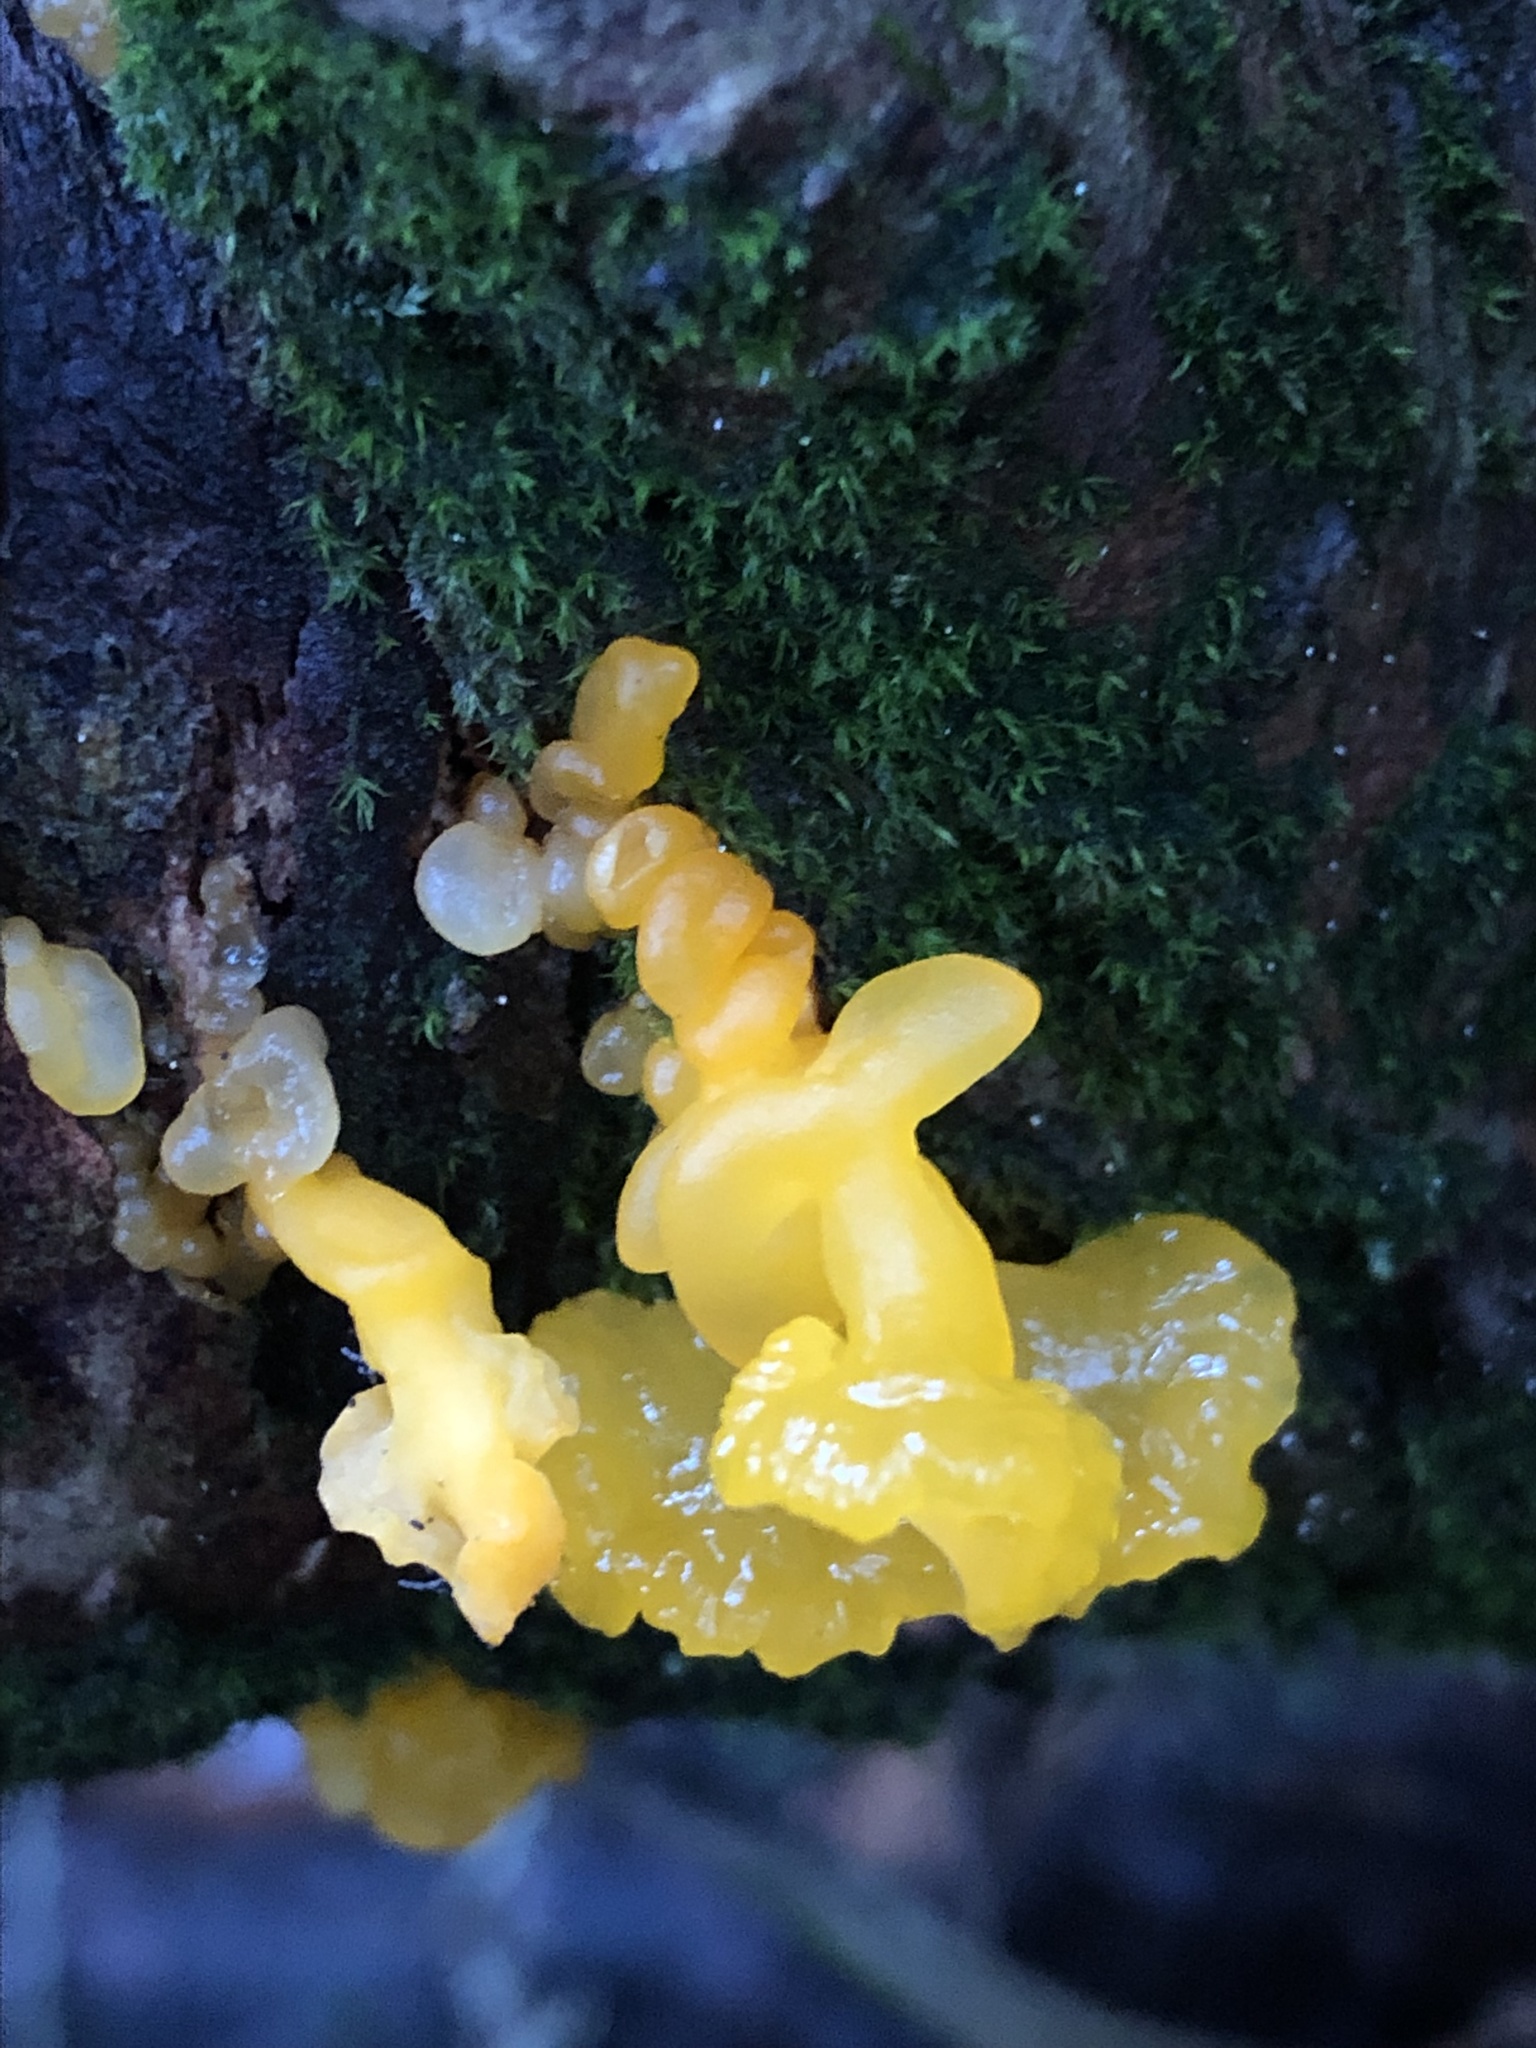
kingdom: Fungi
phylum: Basidiomycota
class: Tremellomycetes
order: Tremellales
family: Tremellaceae
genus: Tremella
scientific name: Tremella mesenterica
